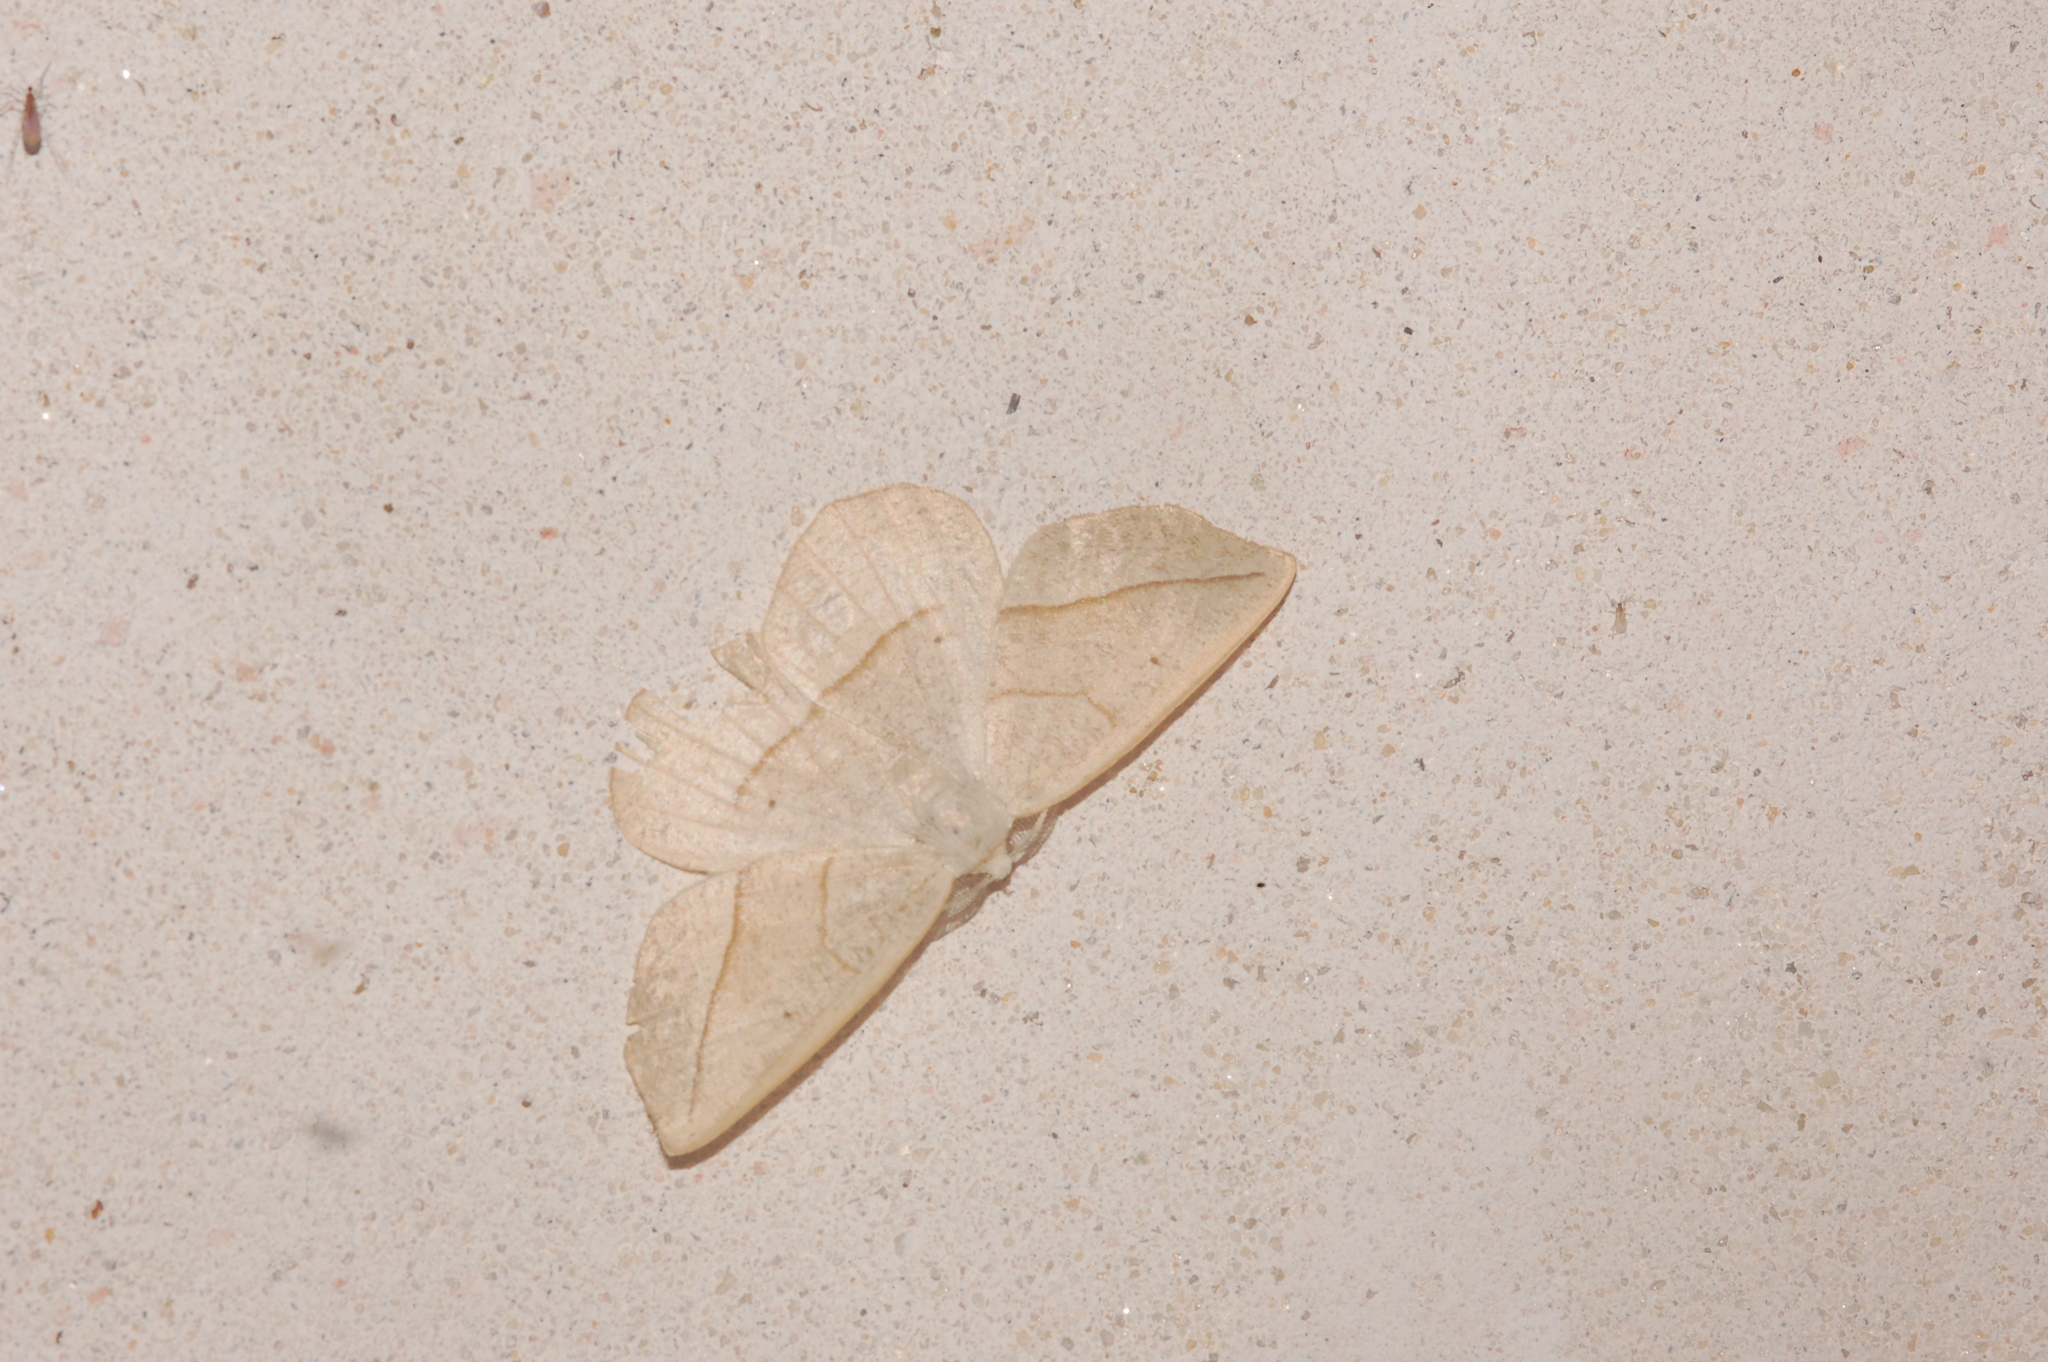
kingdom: Animalia
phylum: Arthropoda
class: Insecta
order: Lepidoptera
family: Geometridae
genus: Eusarca
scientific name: Eusarca confusaria
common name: Confused eusarca
